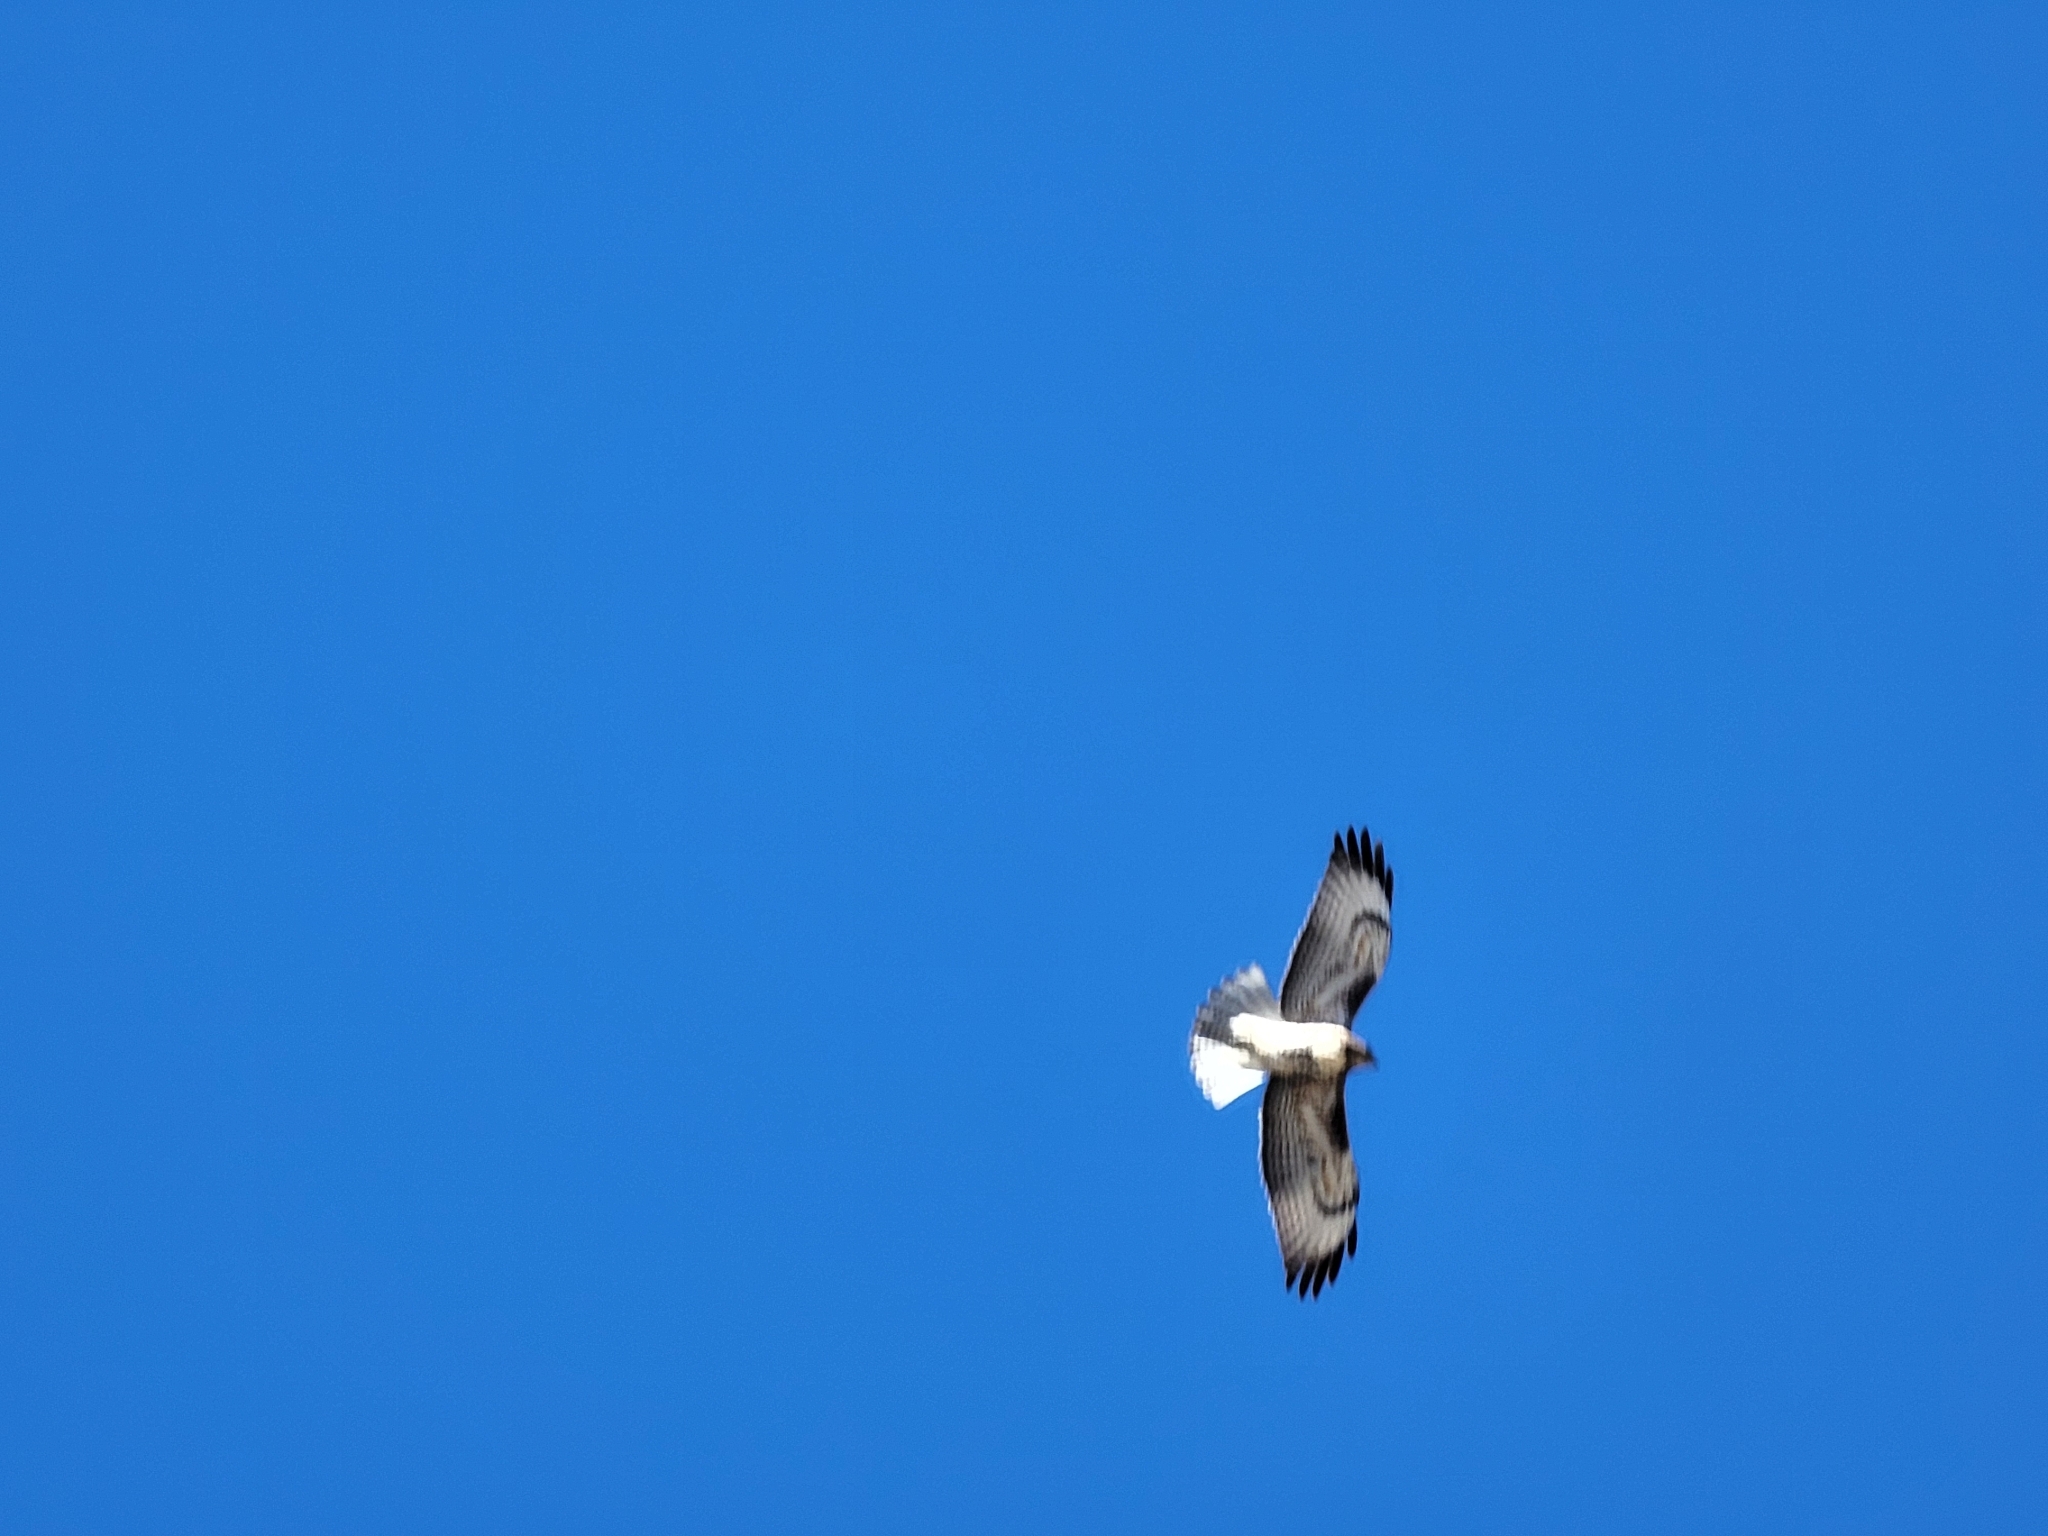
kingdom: Animalia
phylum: Chordata
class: Aves
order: Accipitriformes
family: Accipitridae
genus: Buteo
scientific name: Buteo jamaicensis
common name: Red-tailed hawk
